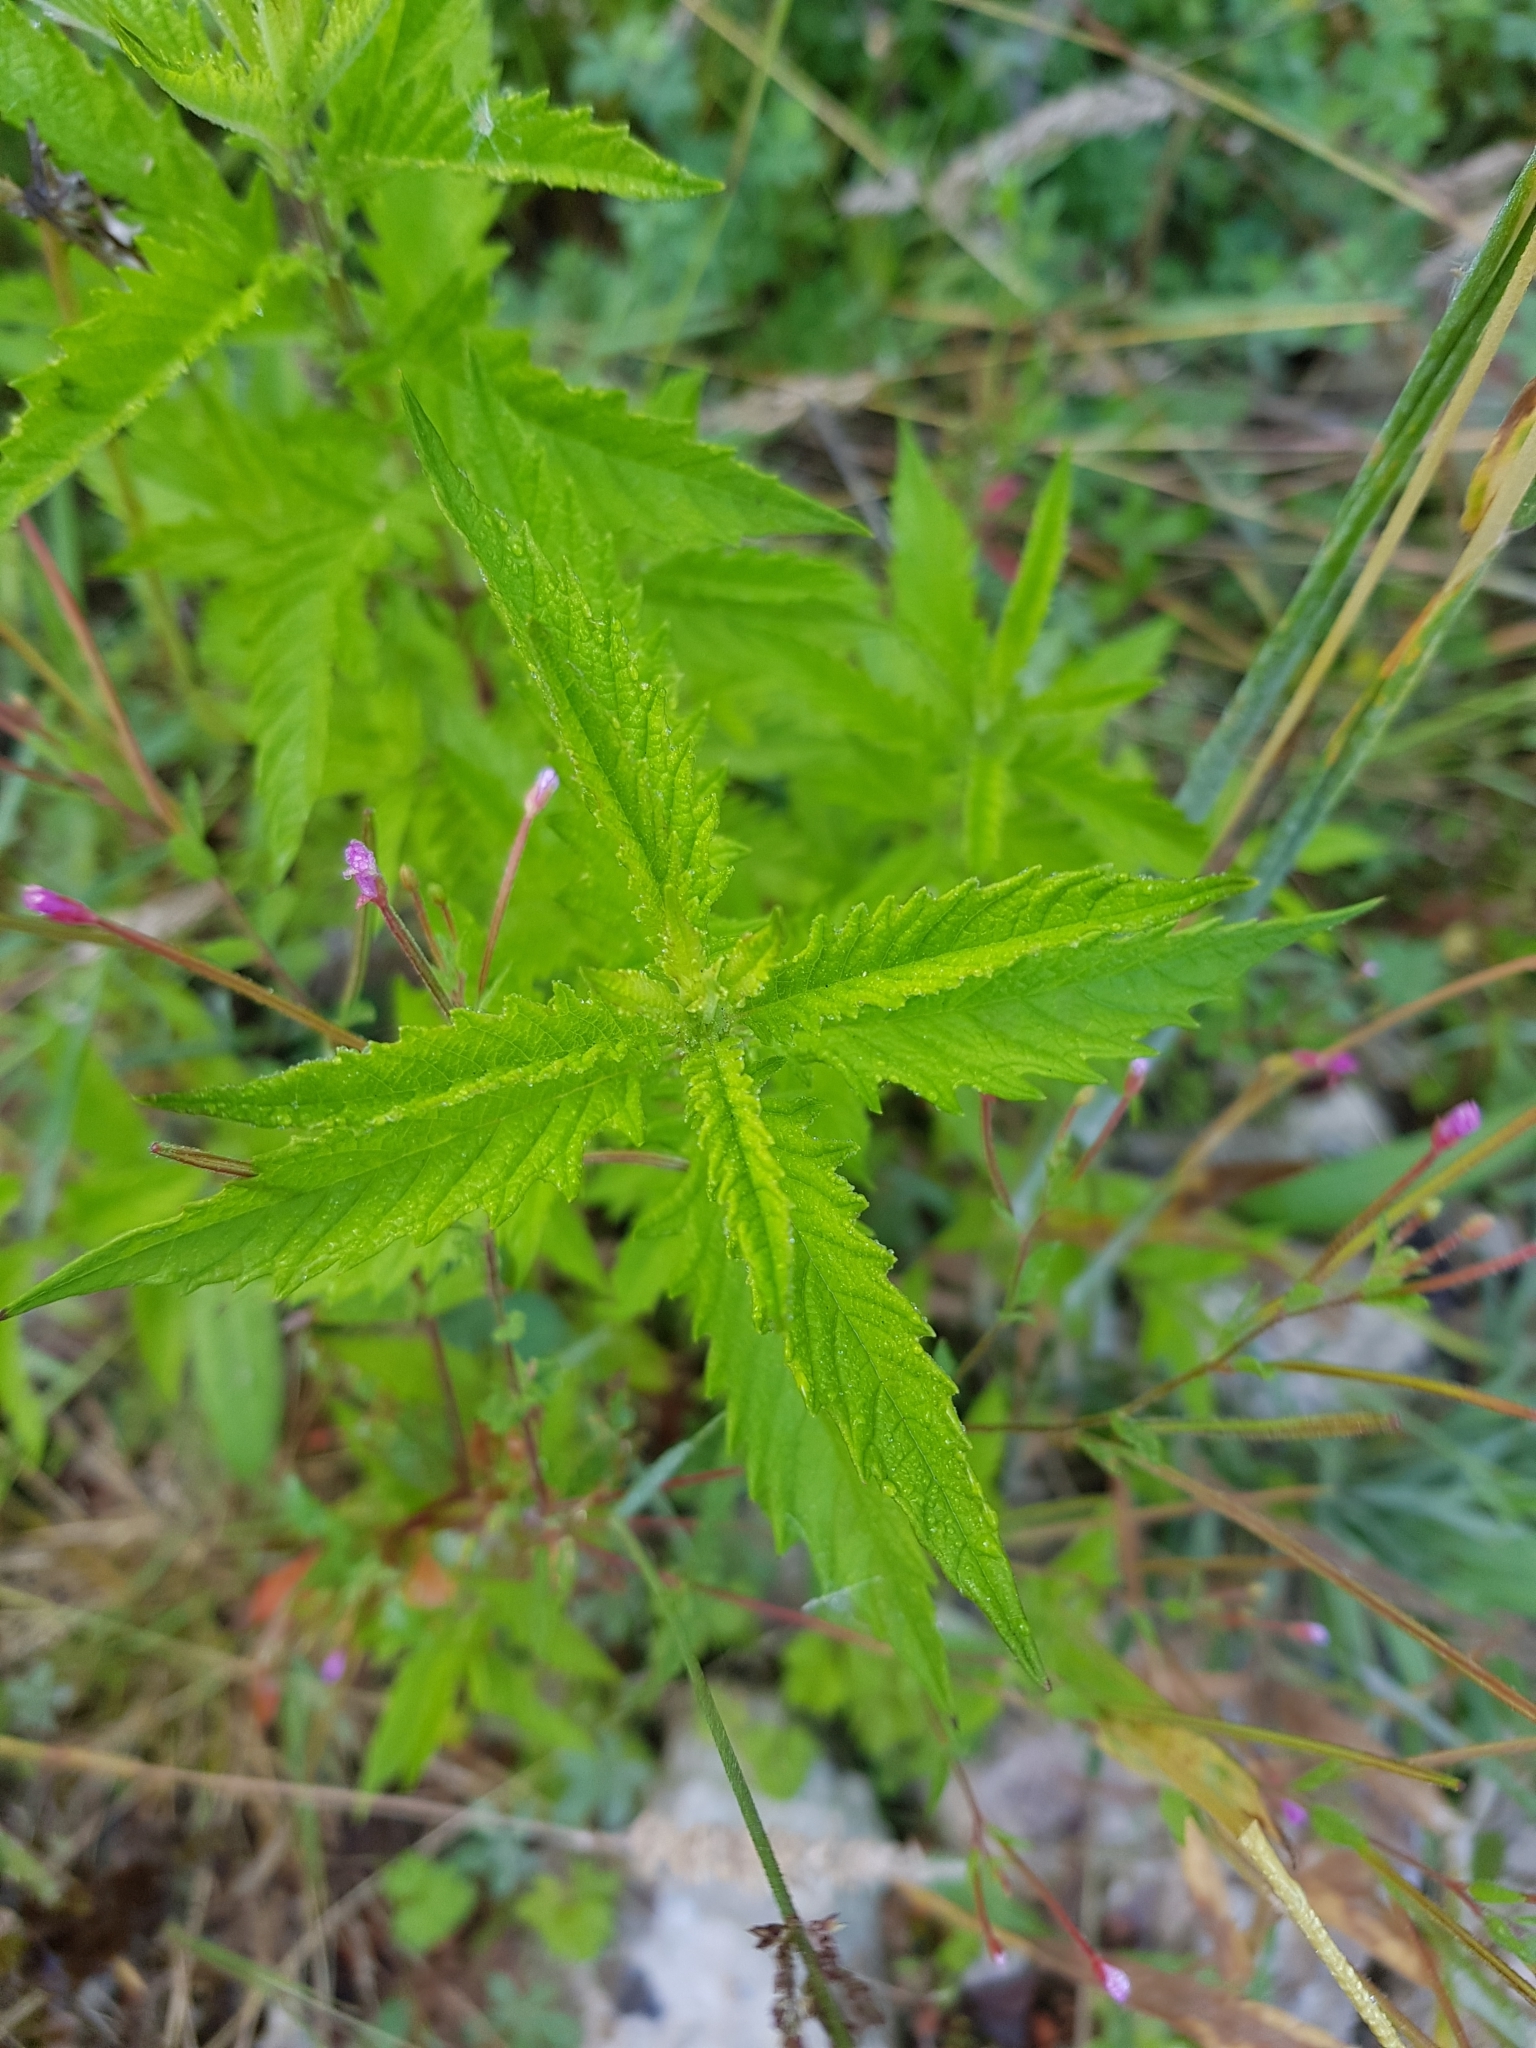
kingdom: Plantae
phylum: Tracheophyta
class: Magnoliopsida
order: Lamiales
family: Lamiaceae
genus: Lycopus
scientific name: Lycopus europaeus
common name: European bugleweed
